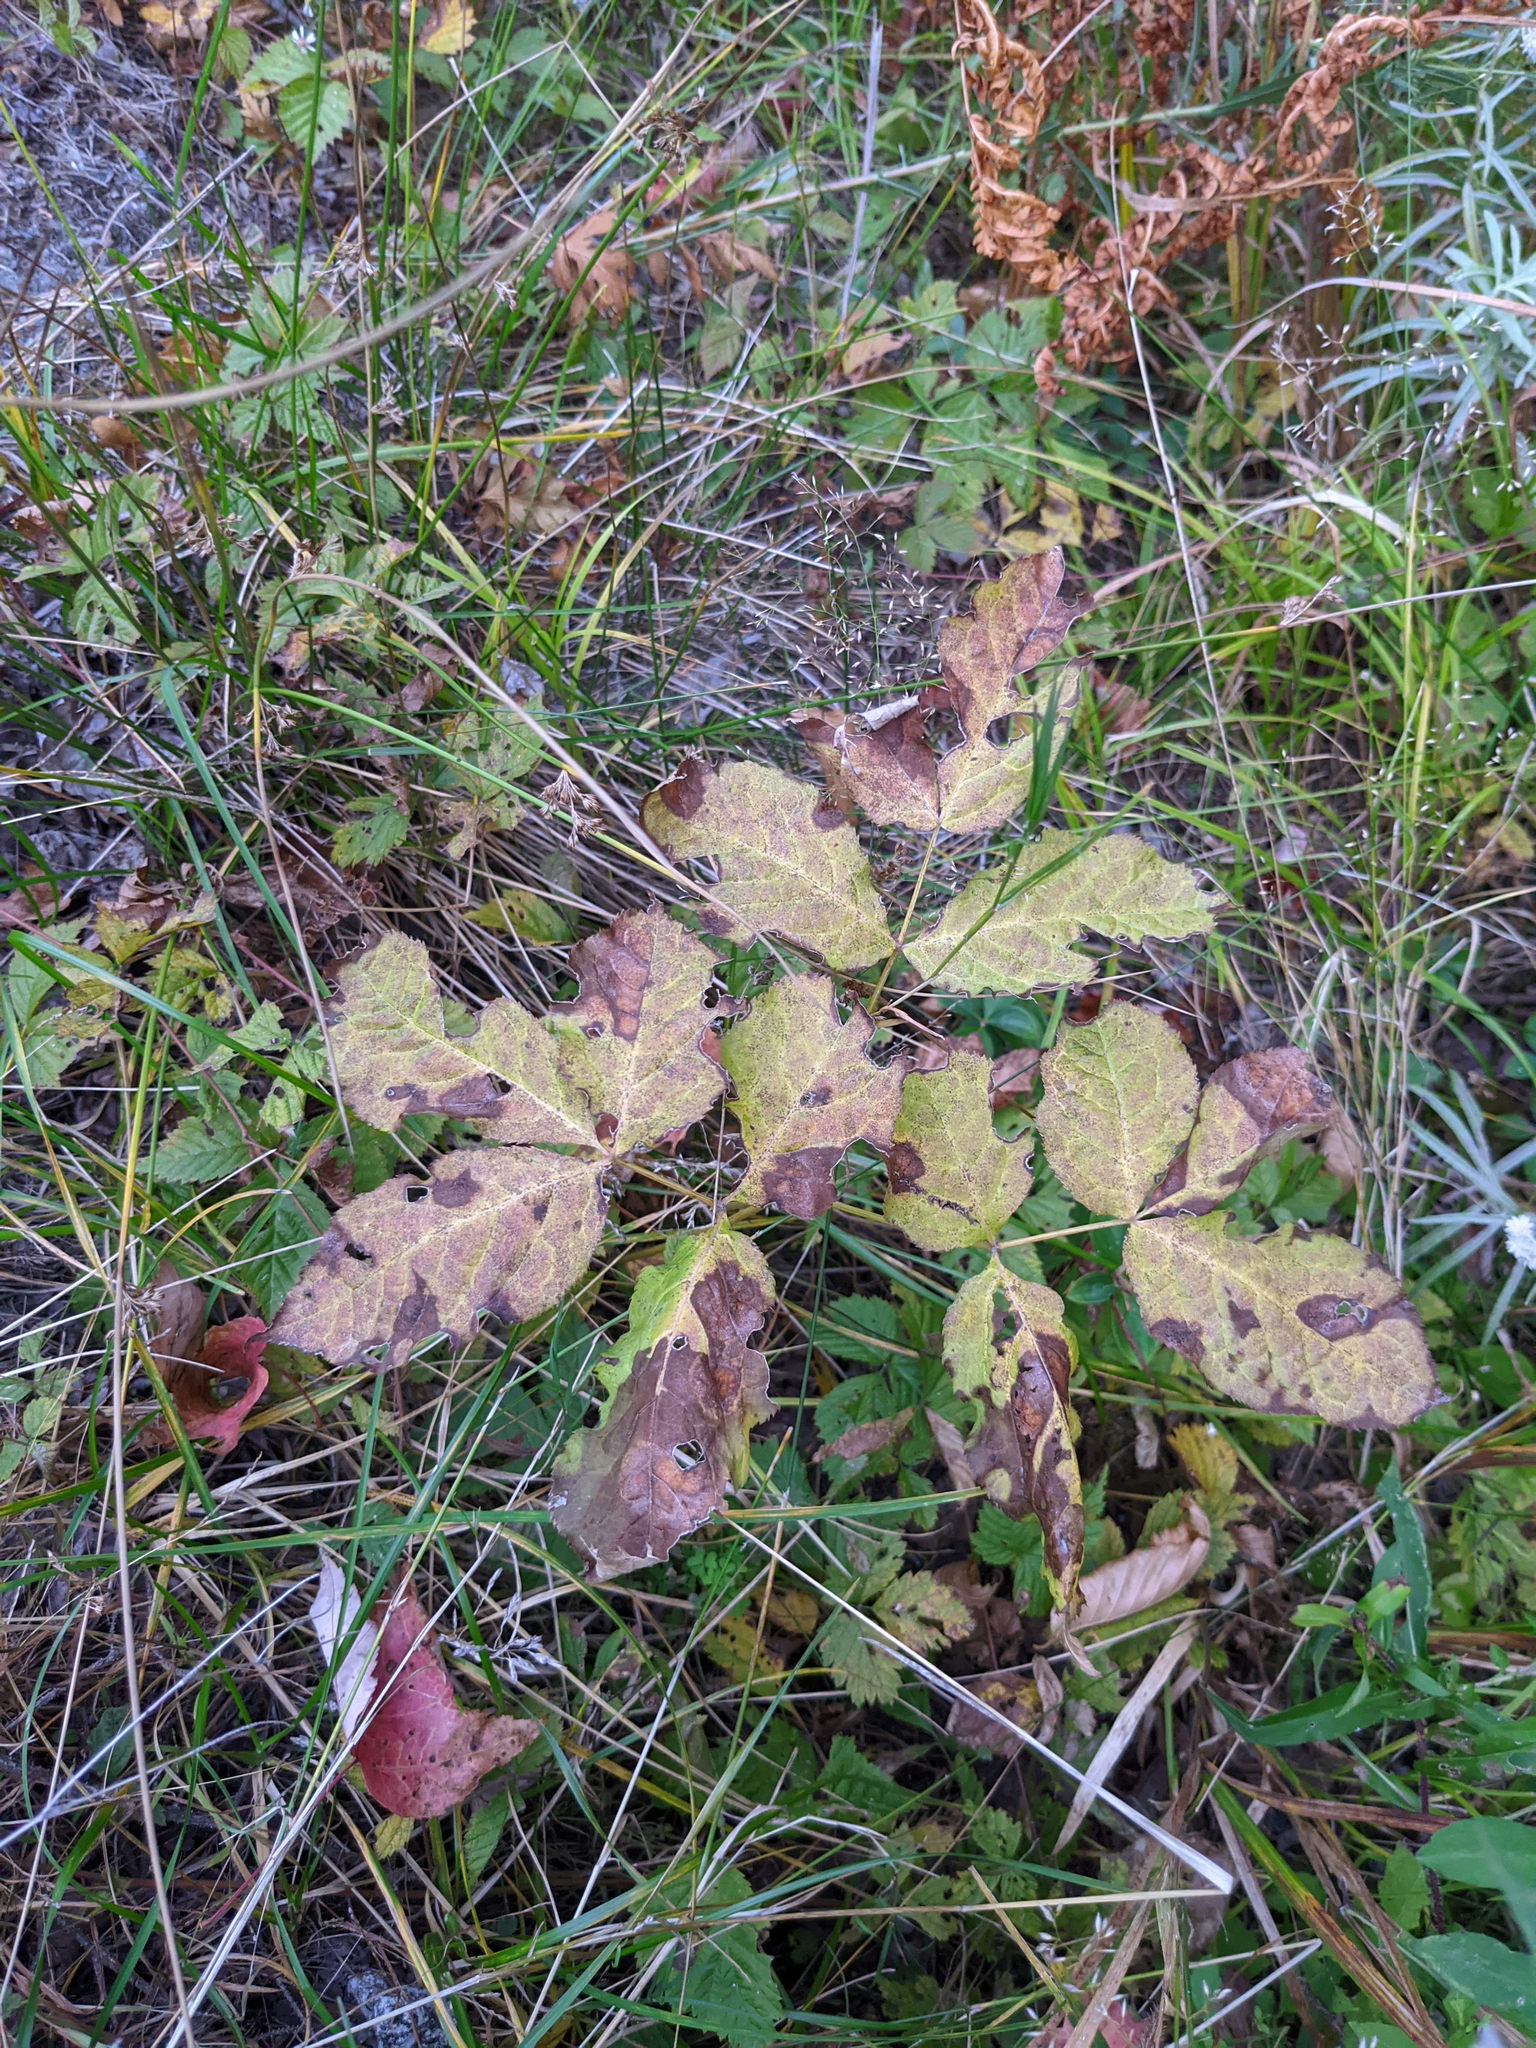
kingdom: Plantae
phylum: Tracheophyta
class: Magnoliopsida
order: Apiales
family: Araliaceae
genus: Aralia
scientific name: Aralia nudicaulis
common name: Wild sarsaparilla
